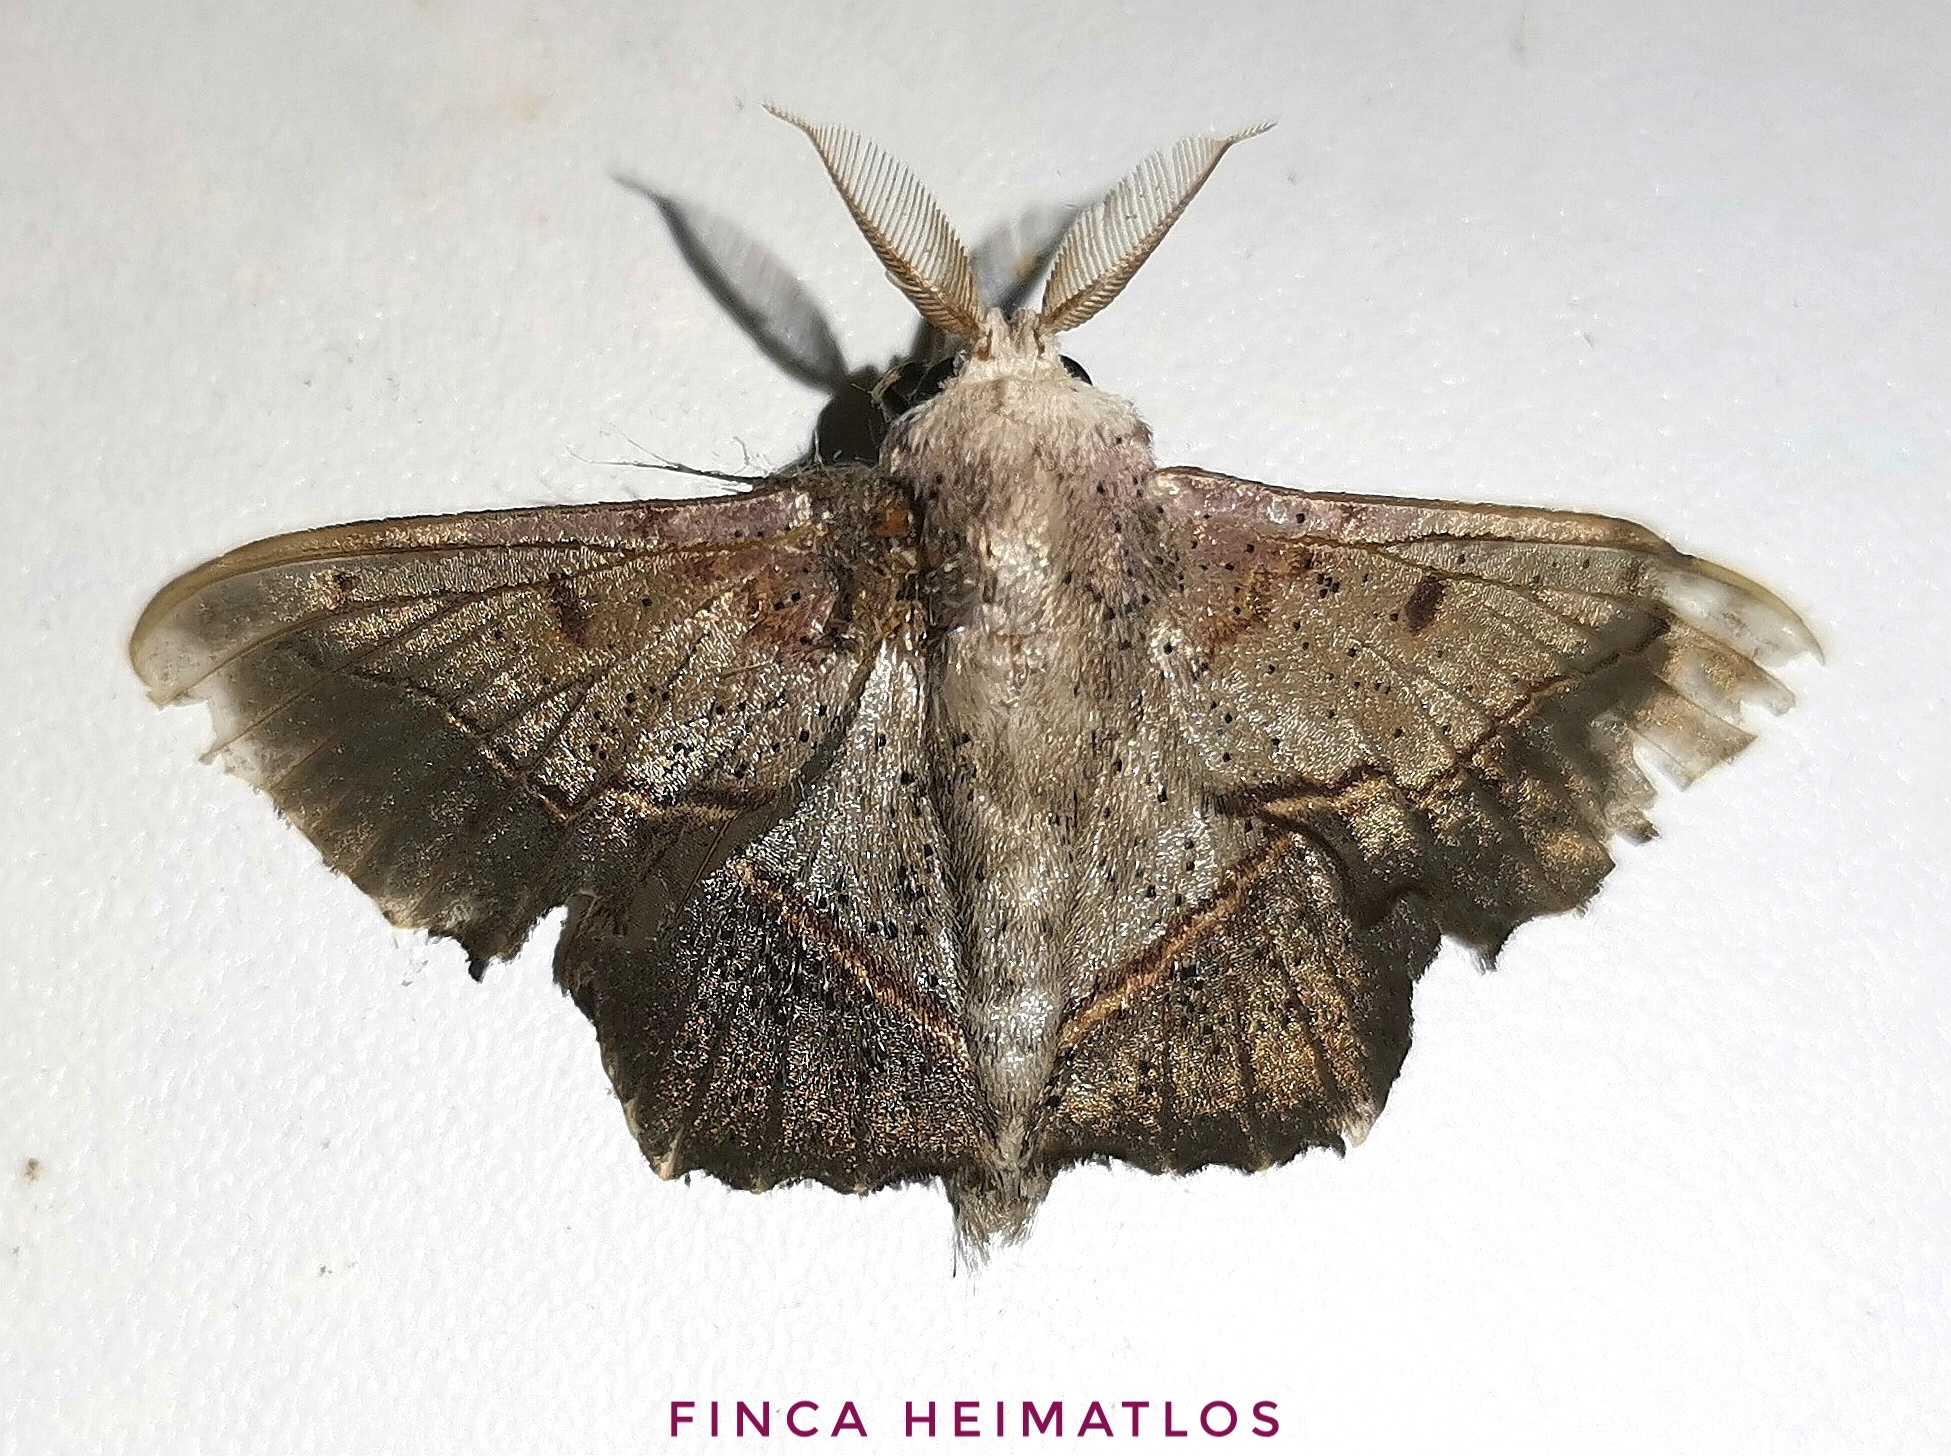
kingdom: Animalia
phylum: Arthropoda
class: Insecta
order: Lepidoptera
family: Mimallonidae
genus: Druentica
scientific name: Druentica muta
